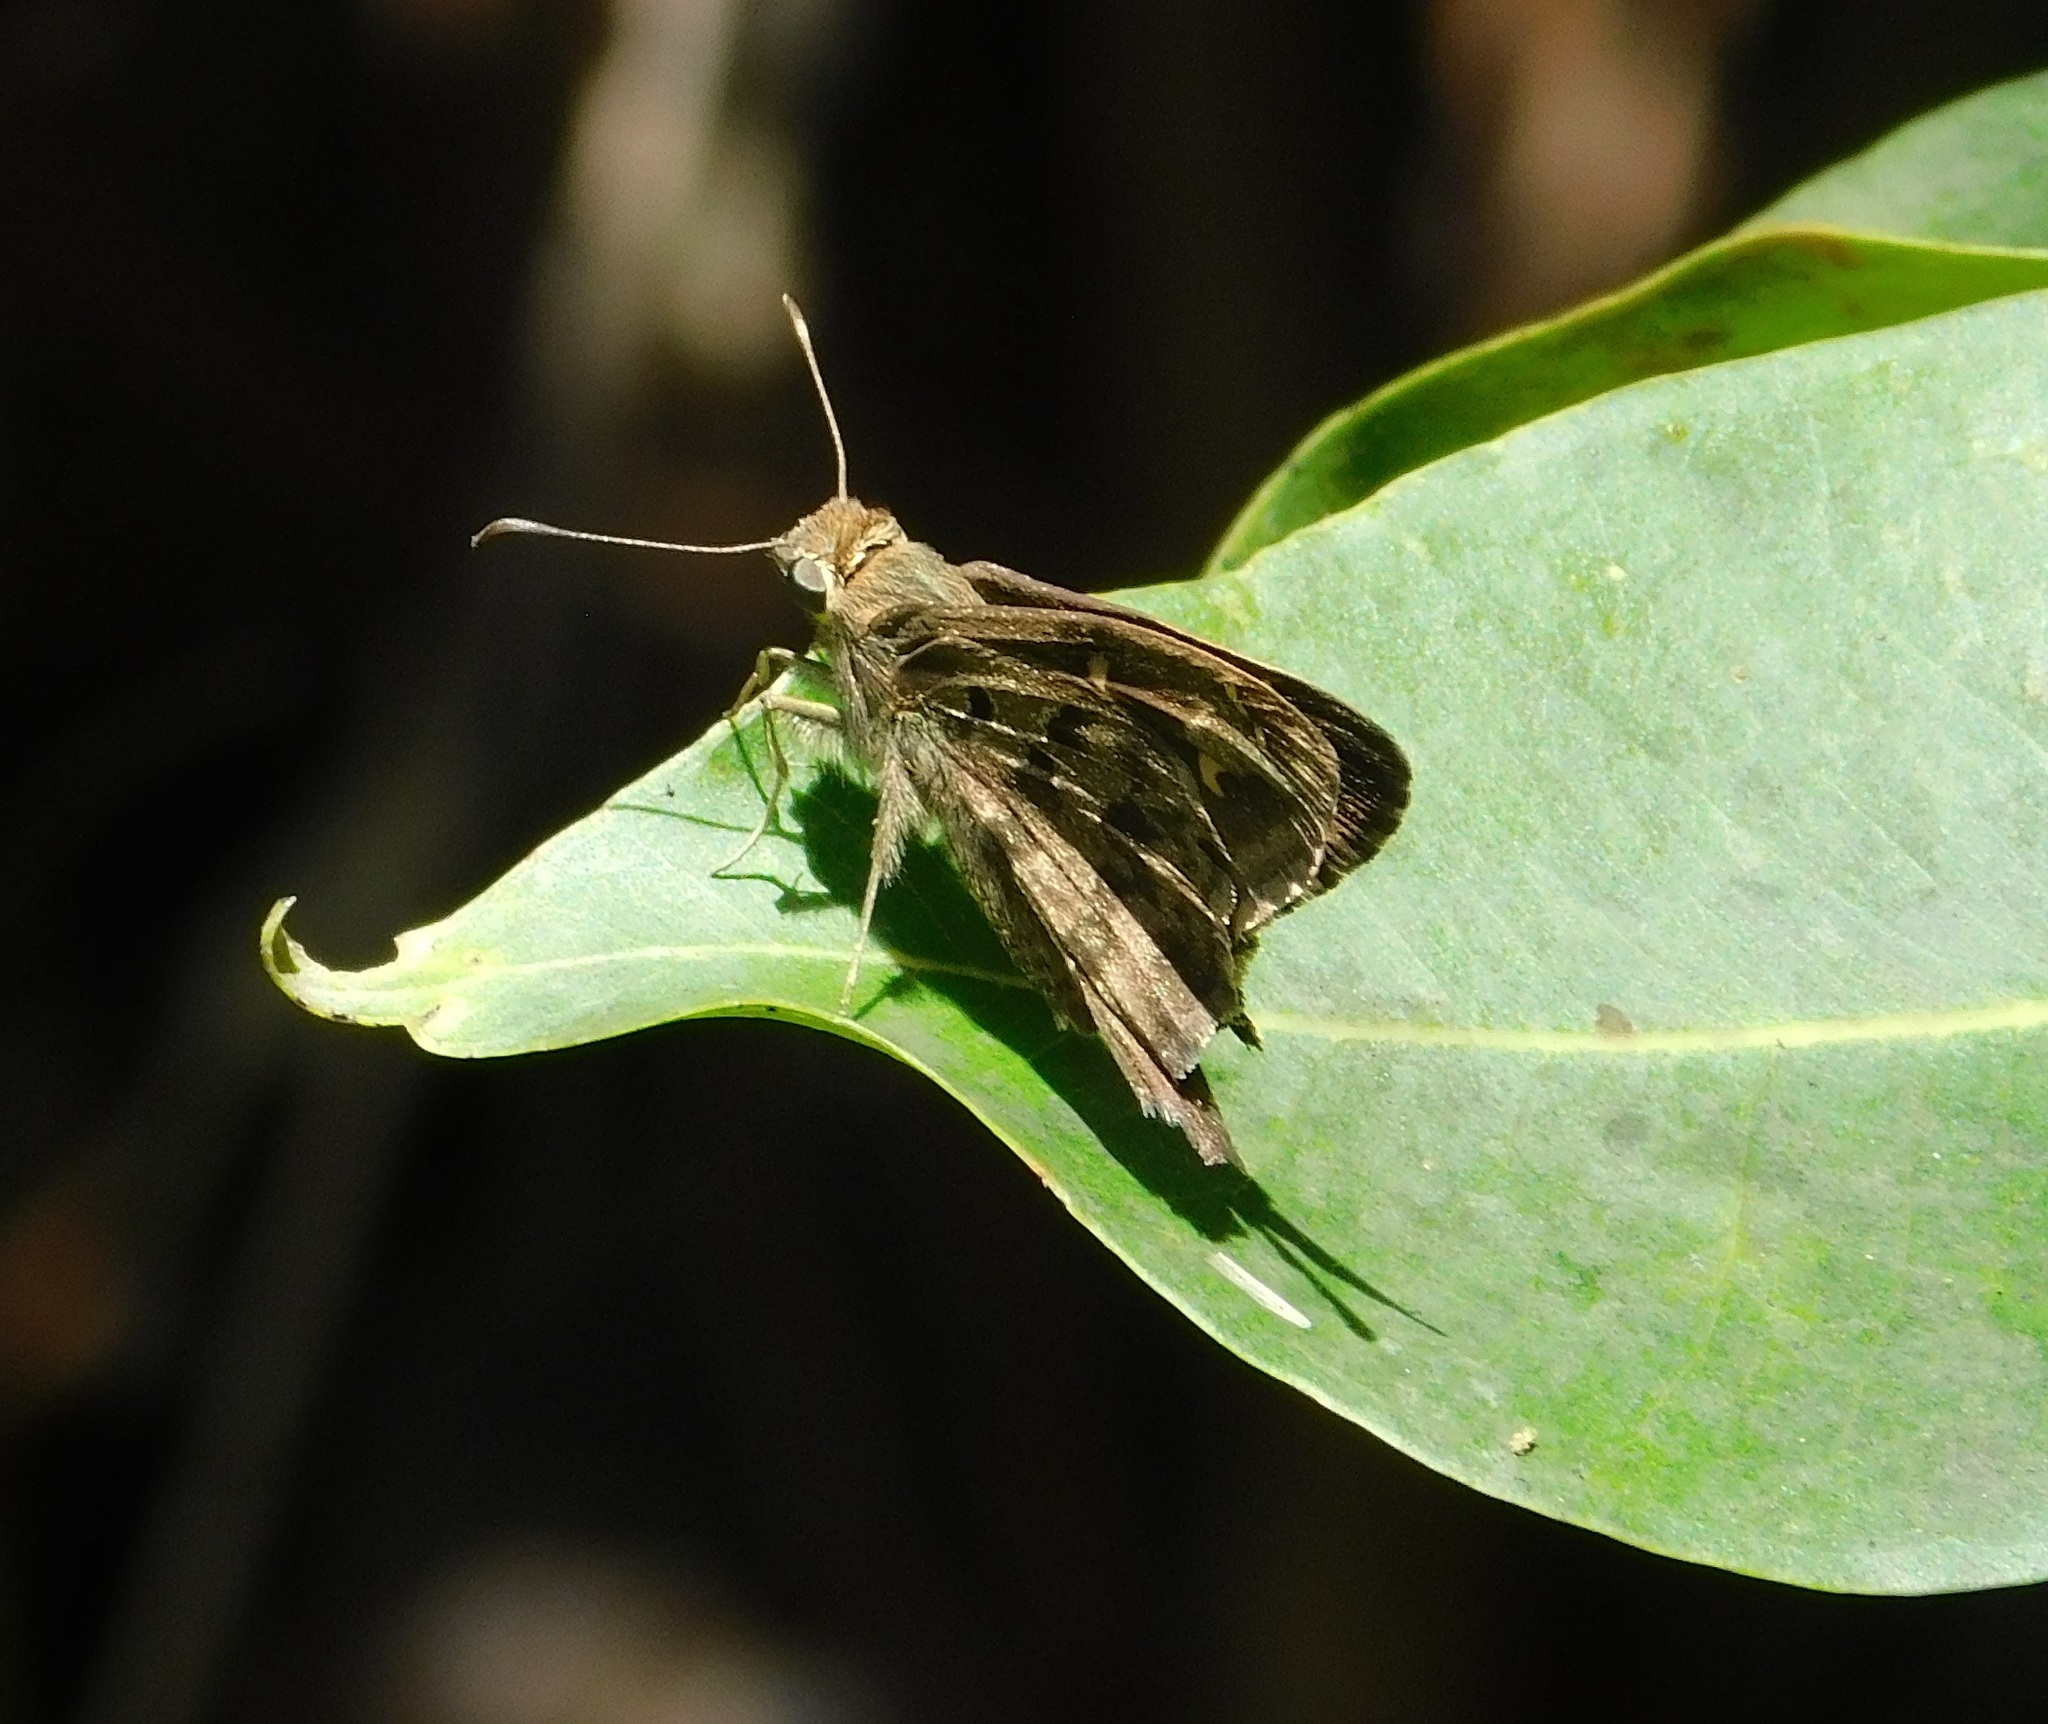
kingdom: Animalia
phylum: Arthropoda
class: Insecta
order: Lepidoptera
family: Hesperiidae
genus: Thorybes
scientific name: Thorybes
